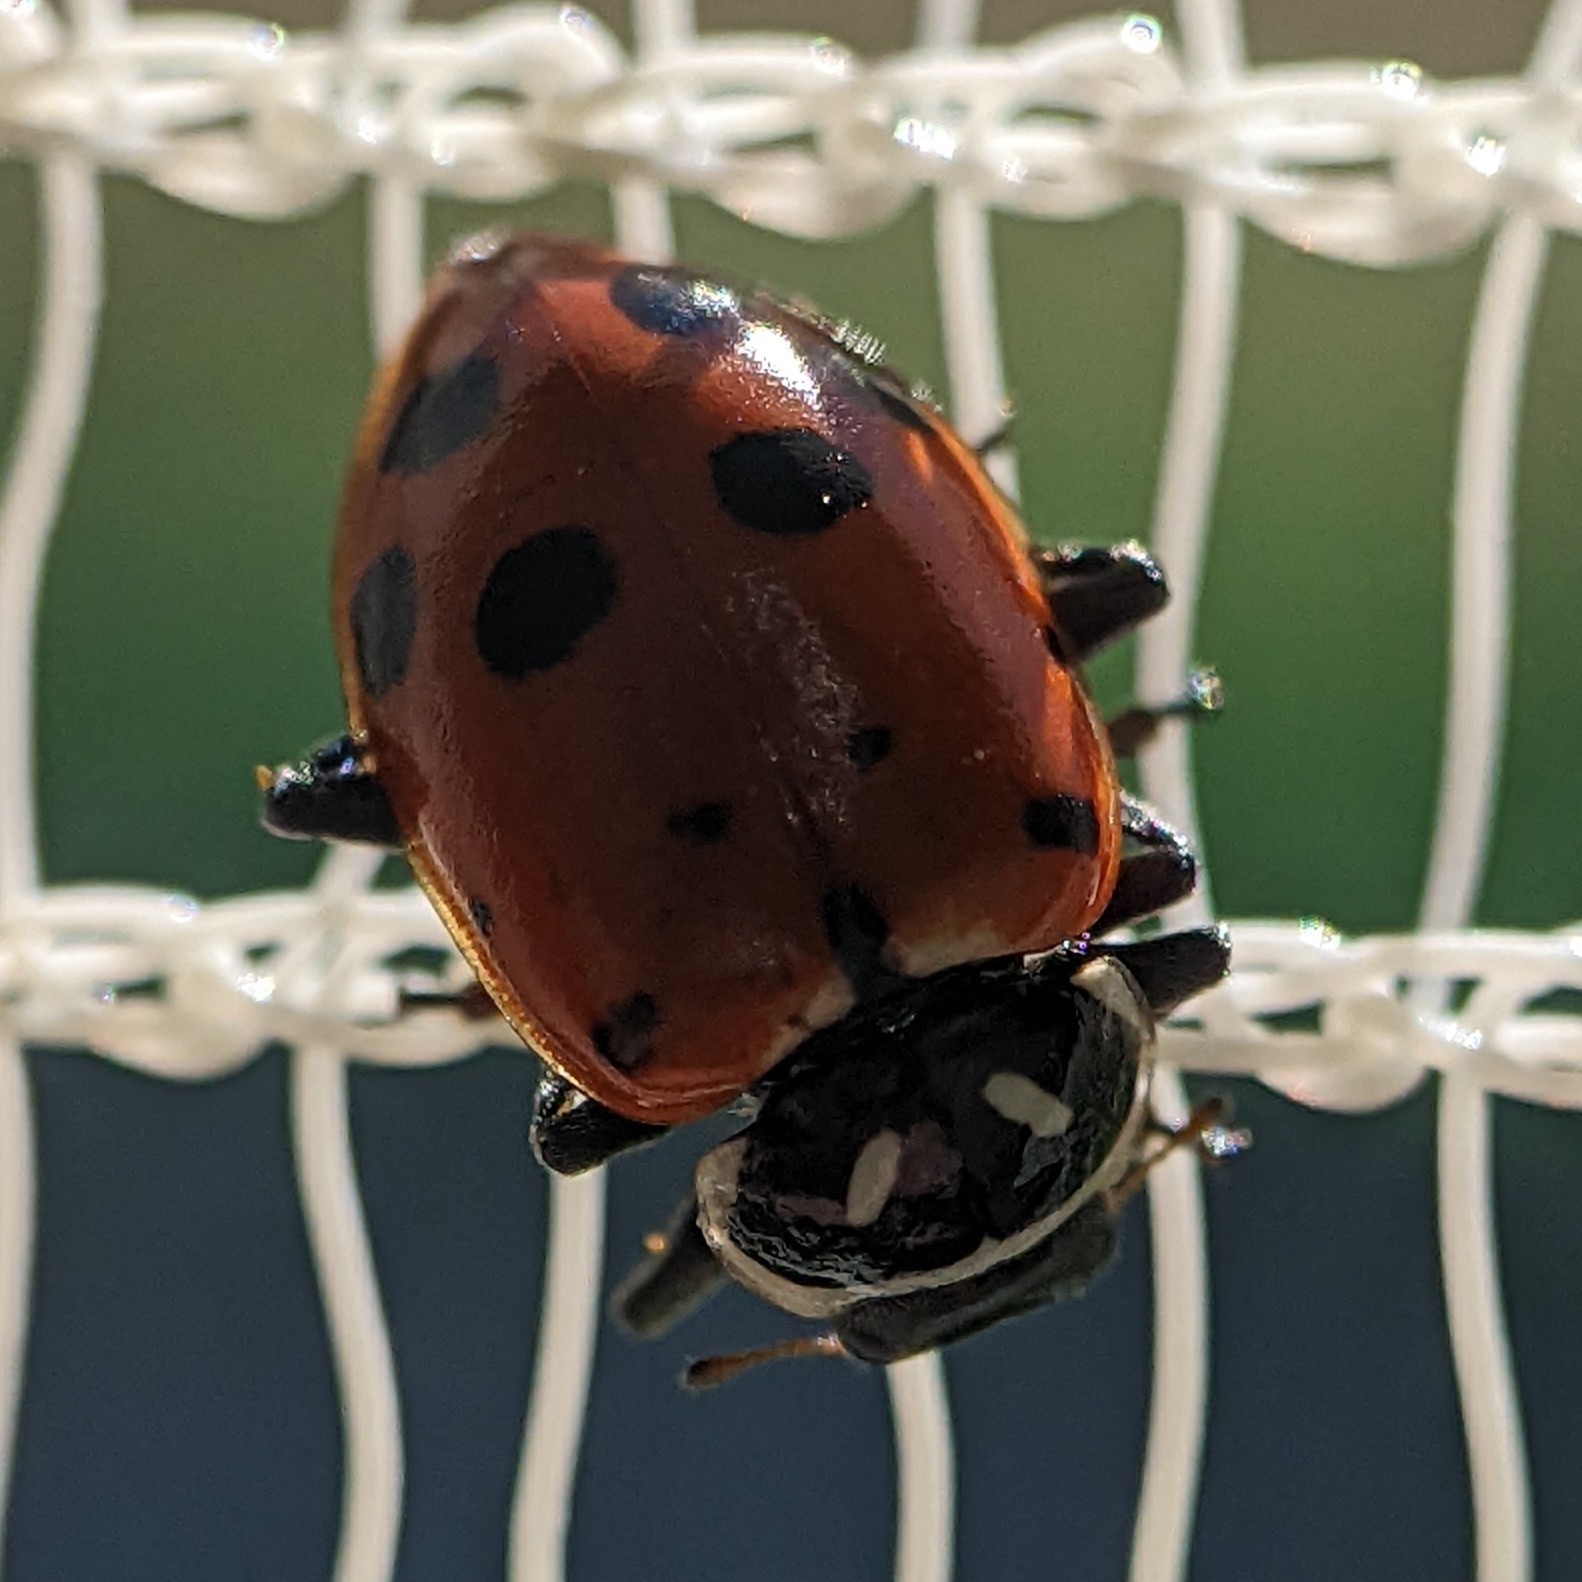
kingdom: Animalia
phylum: Arthropoda
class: Insecta
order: Coleoptera
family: Coccinellidae
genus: Hippodamia
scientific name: Hippodamia convergens
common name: Convergent lady beetle
